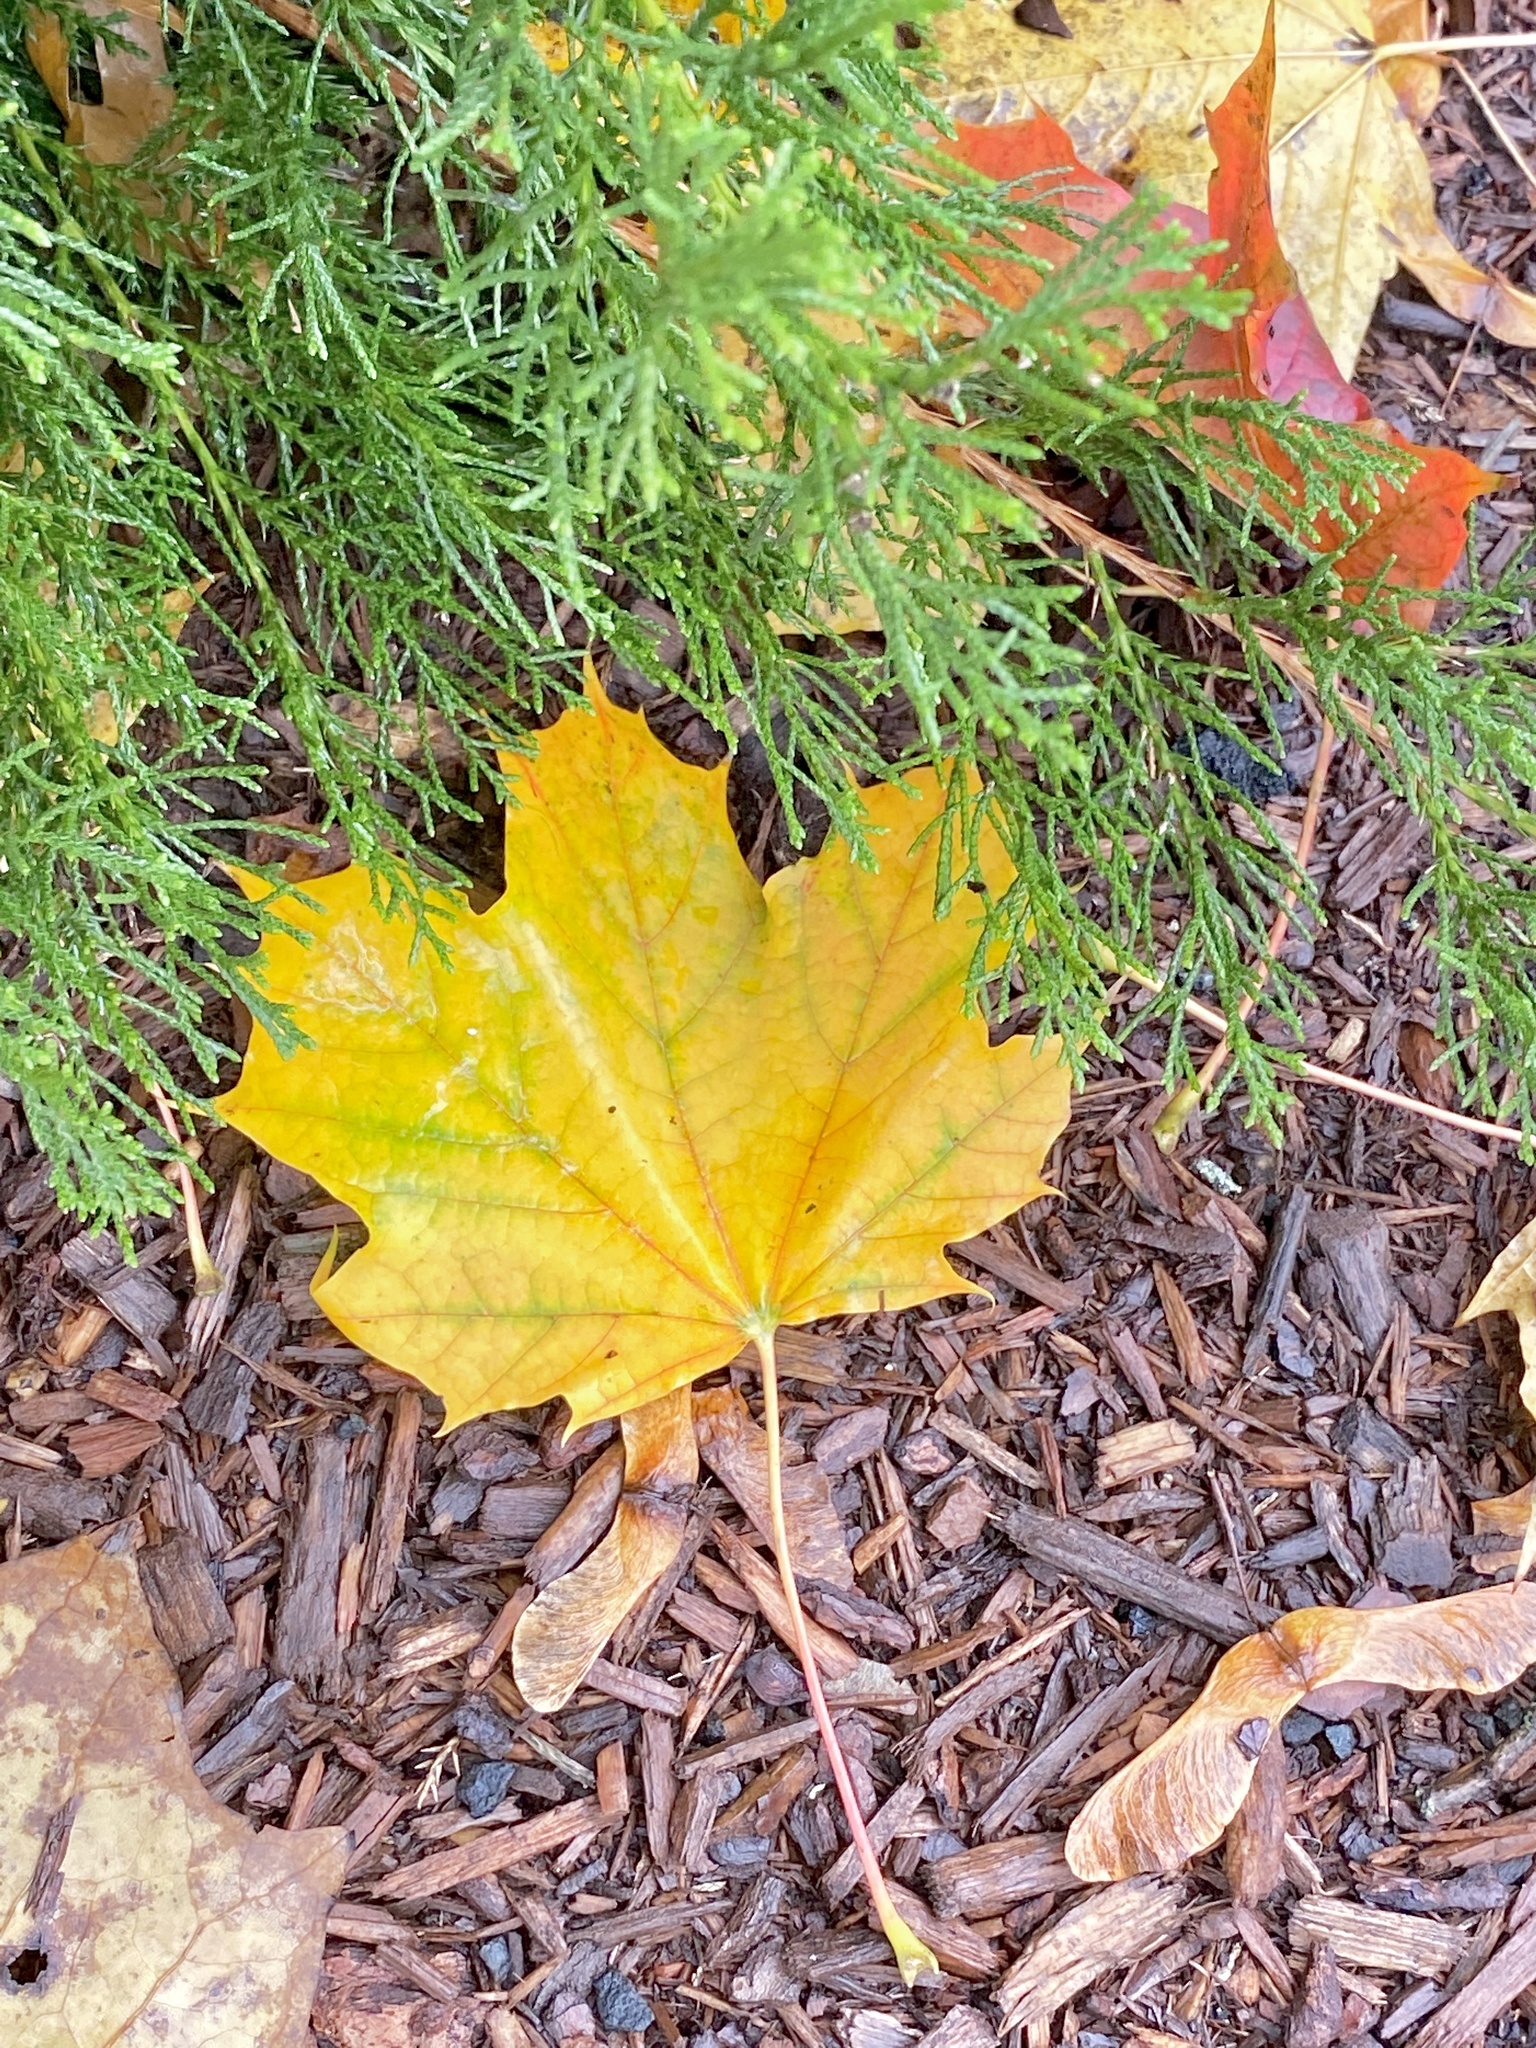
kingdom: Plantae
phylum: Tracheophyta
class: Magnoliopsida
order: Sapindales
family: Sapindaceae
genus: Acer
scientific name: Acer platanoides
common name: Norway maple
